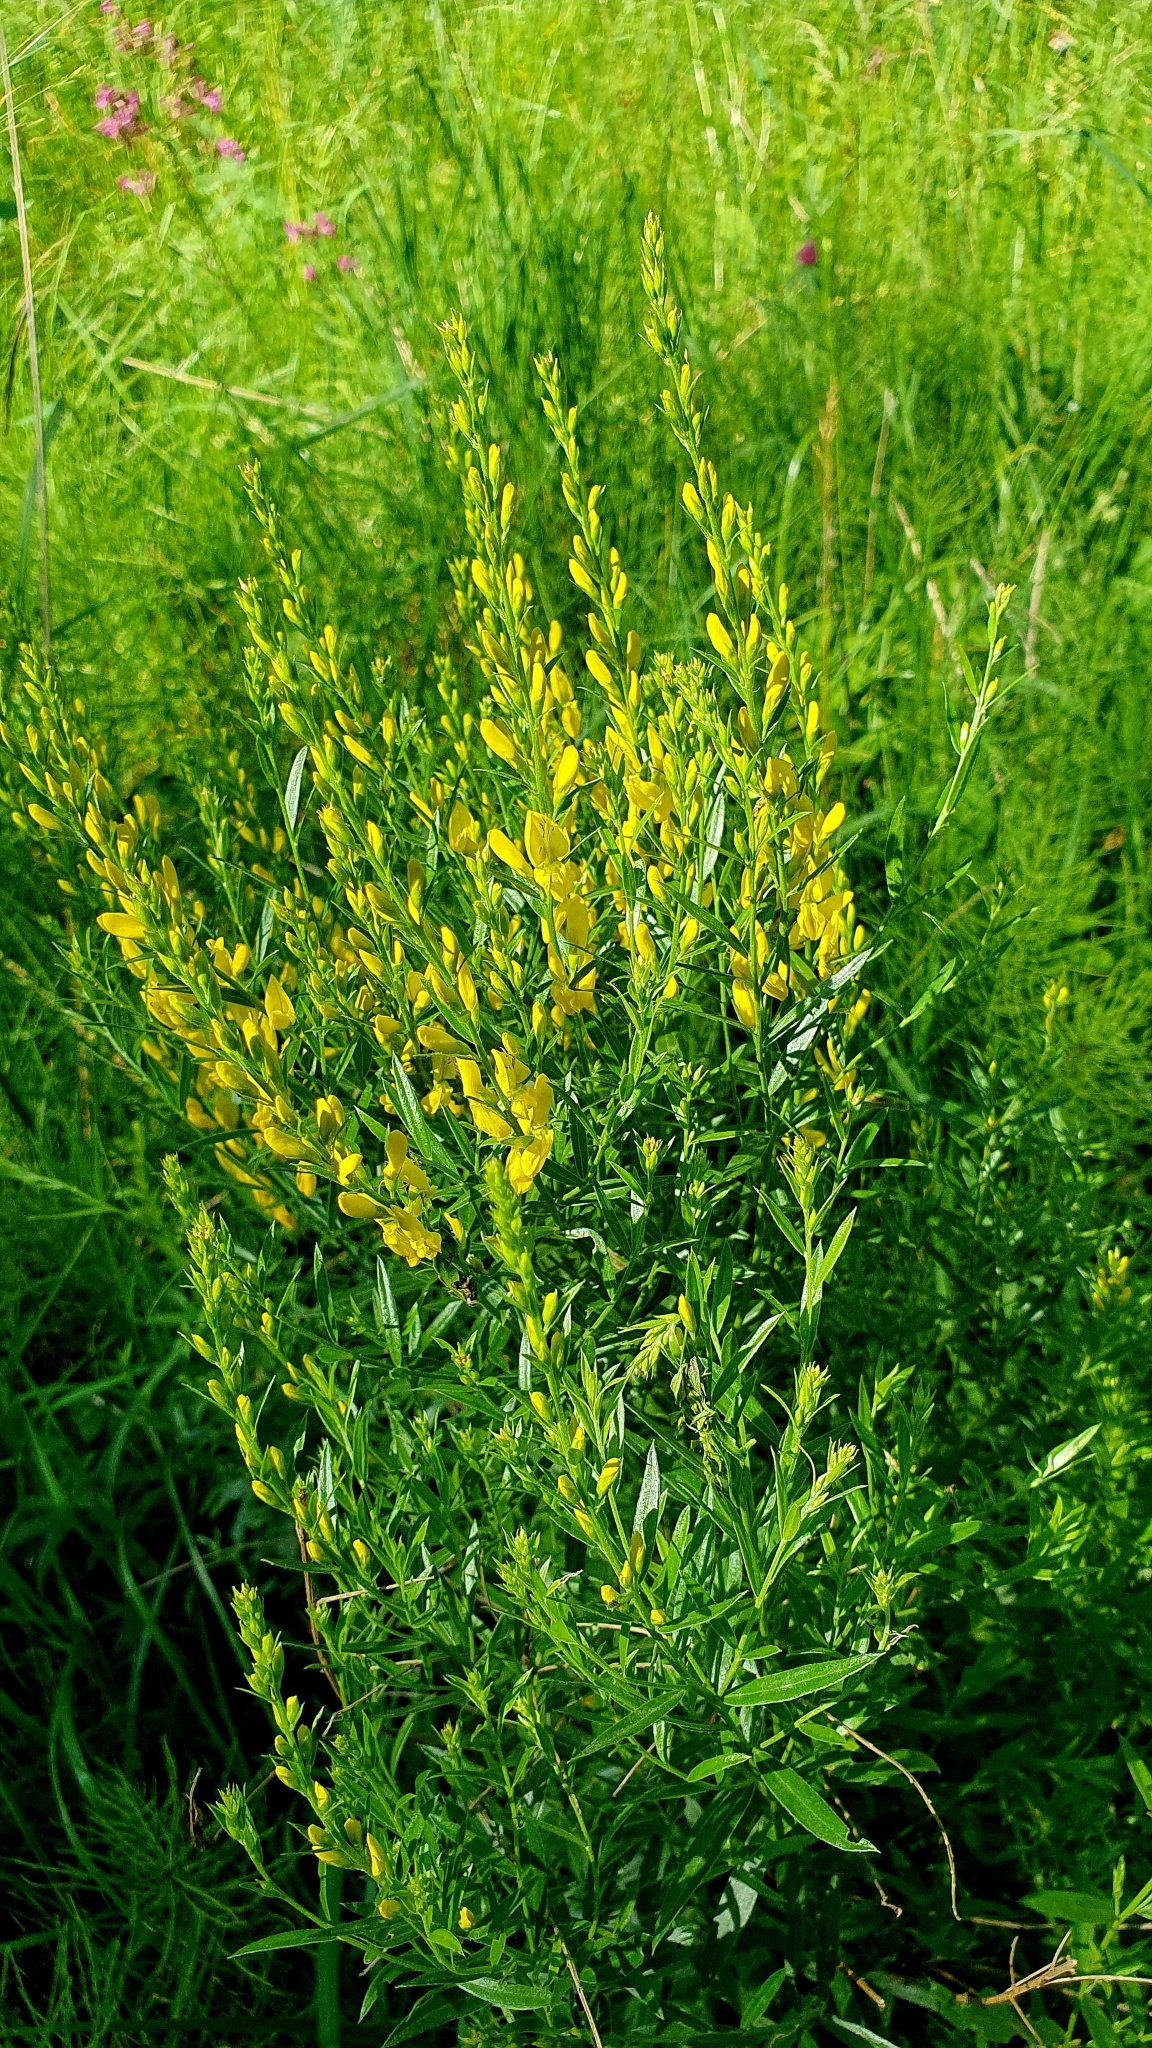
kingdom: Plantae
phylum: Tracheophyta
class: Magnoliopsida
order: Fabales
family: Fabaceae
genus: Genista
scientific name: Genista tinctoria
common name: Dyer's greenweed
